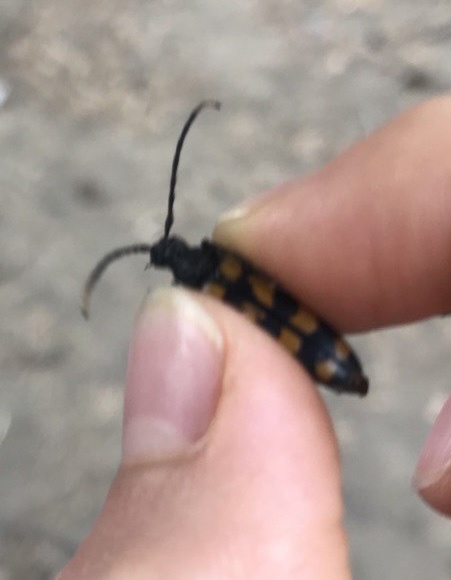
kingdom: Animalia
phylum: Arthropoda
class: Insecta
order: Coleoptera
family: Cerambycidae
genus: Leptura
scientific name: Leptura quadrifasciata
